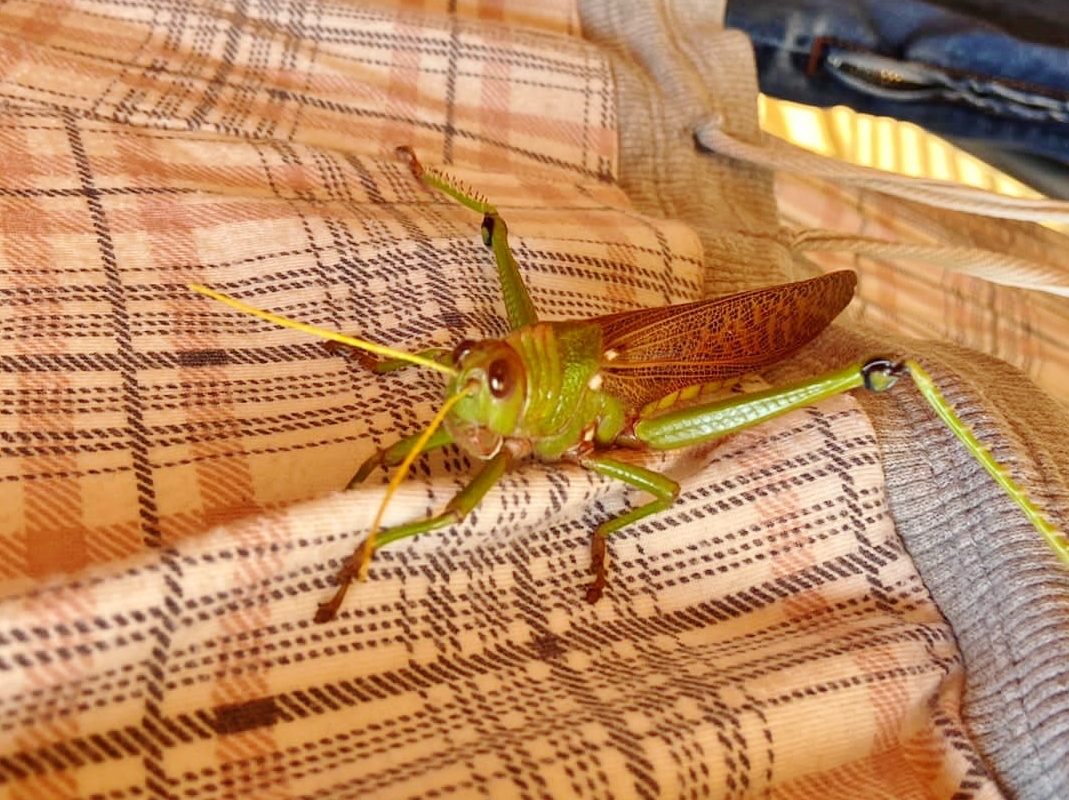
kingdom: Animalia
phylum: Arthropoda
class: Insecta
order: Orthoptera
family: Romaleidae
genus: Tropidacris
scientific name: Tropidacris collaris
